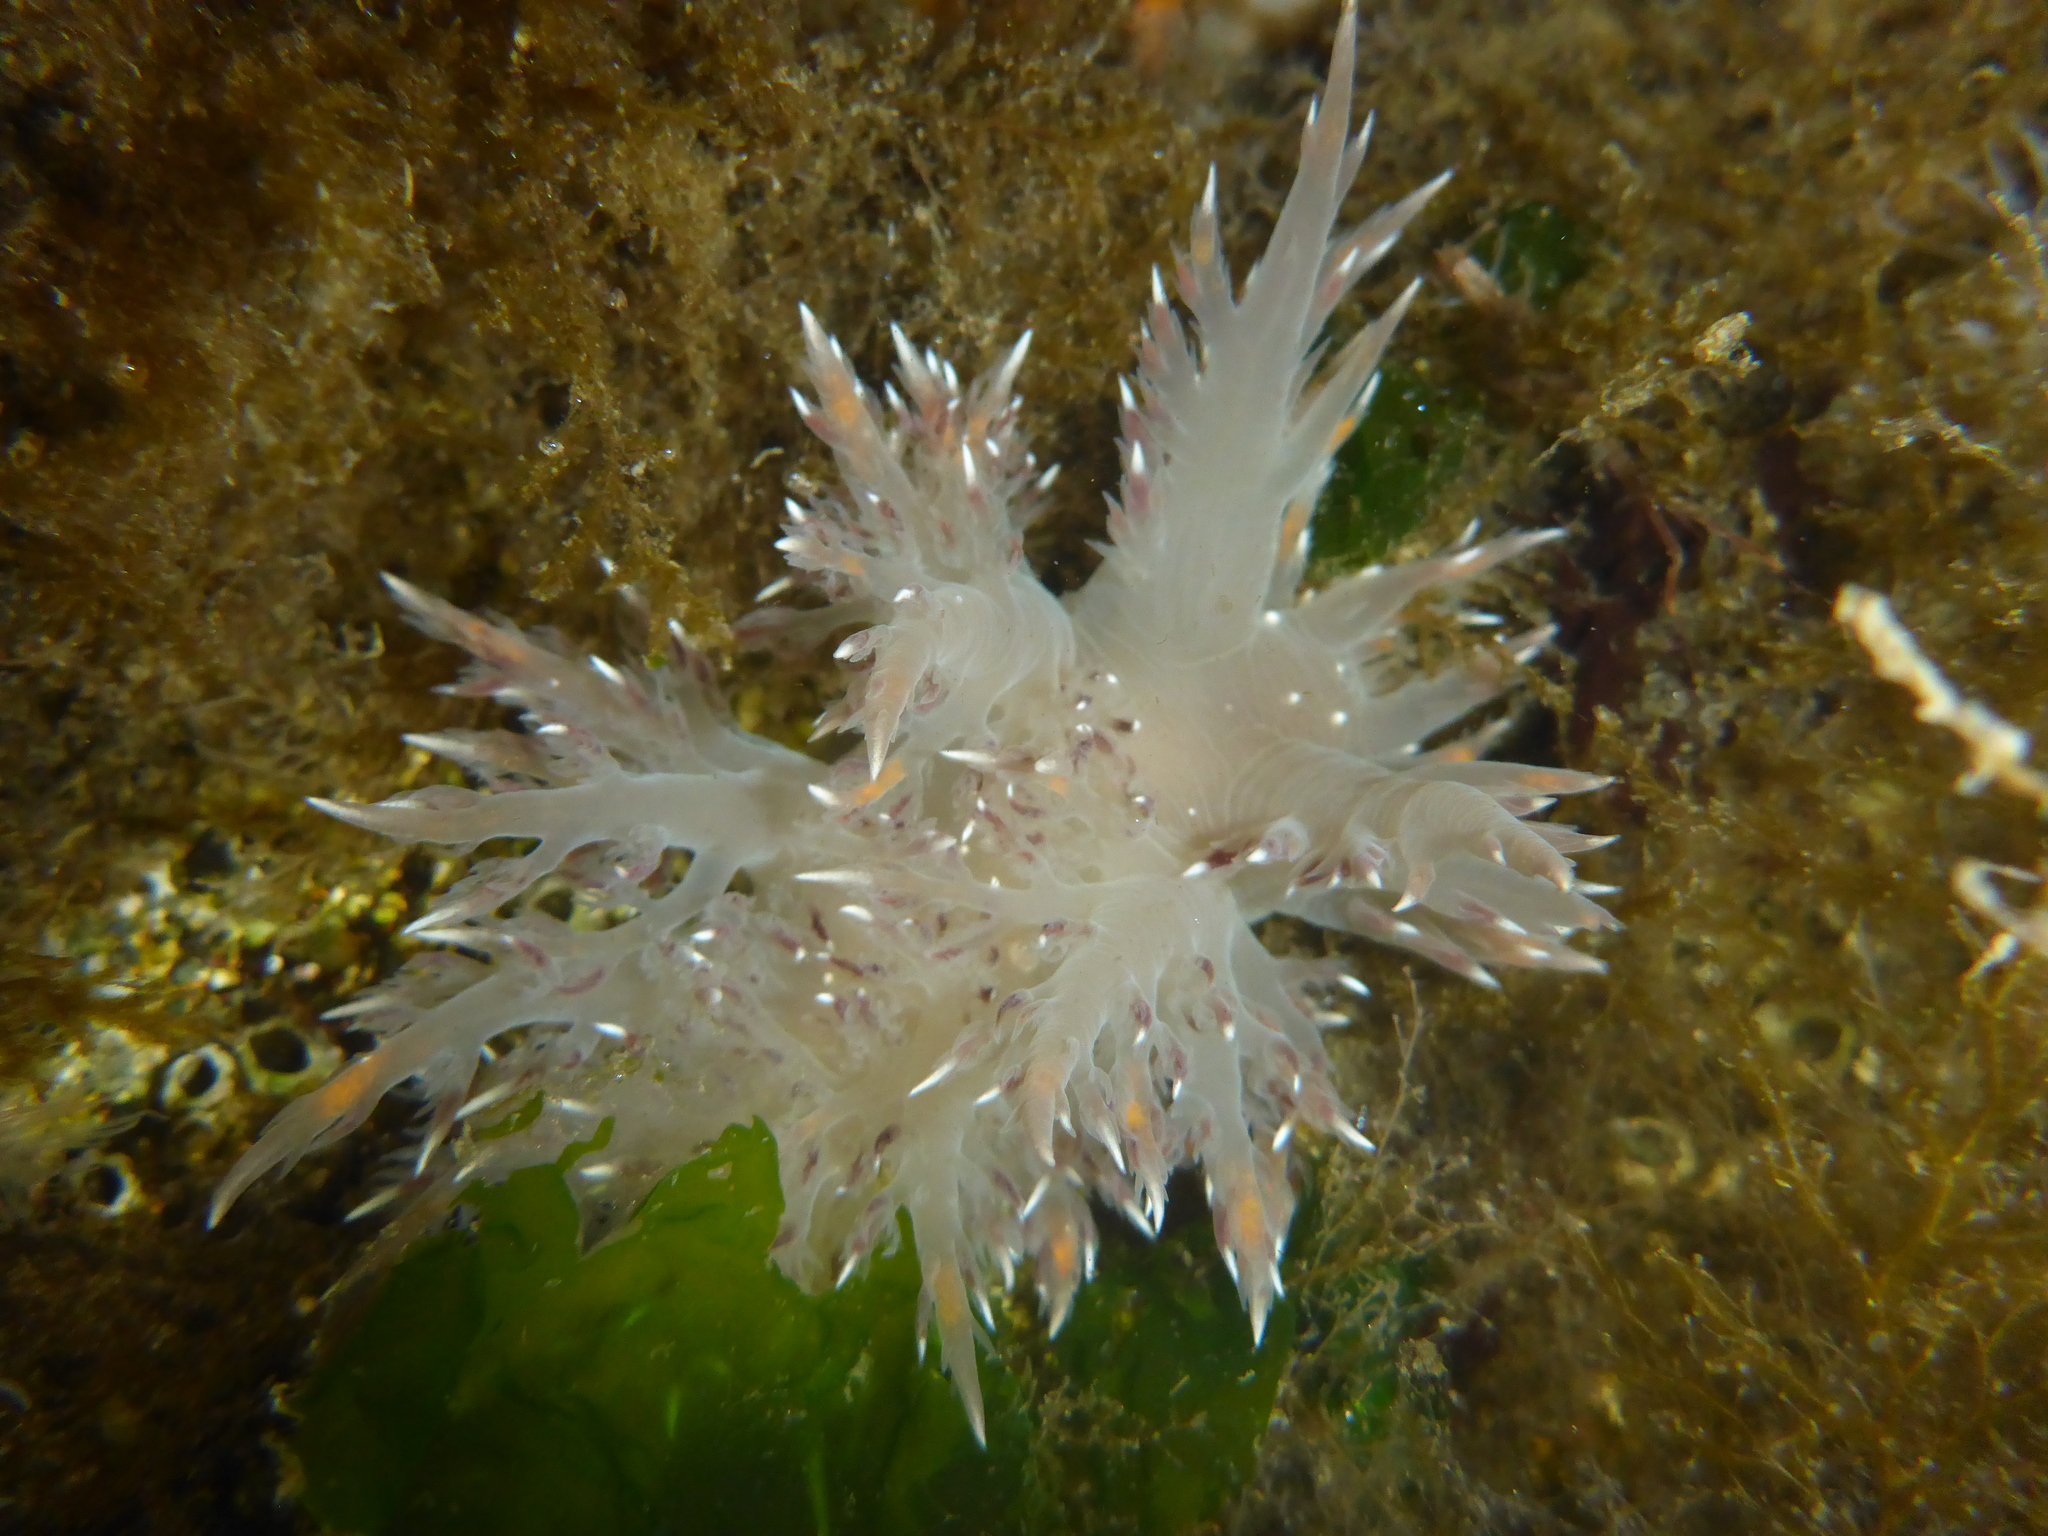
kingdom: Animalia
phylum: Mollusca
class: Gastropoda
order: Nudibranchia
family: Dendronotidae
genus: Dendronotus
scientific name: Dendronotus iris
